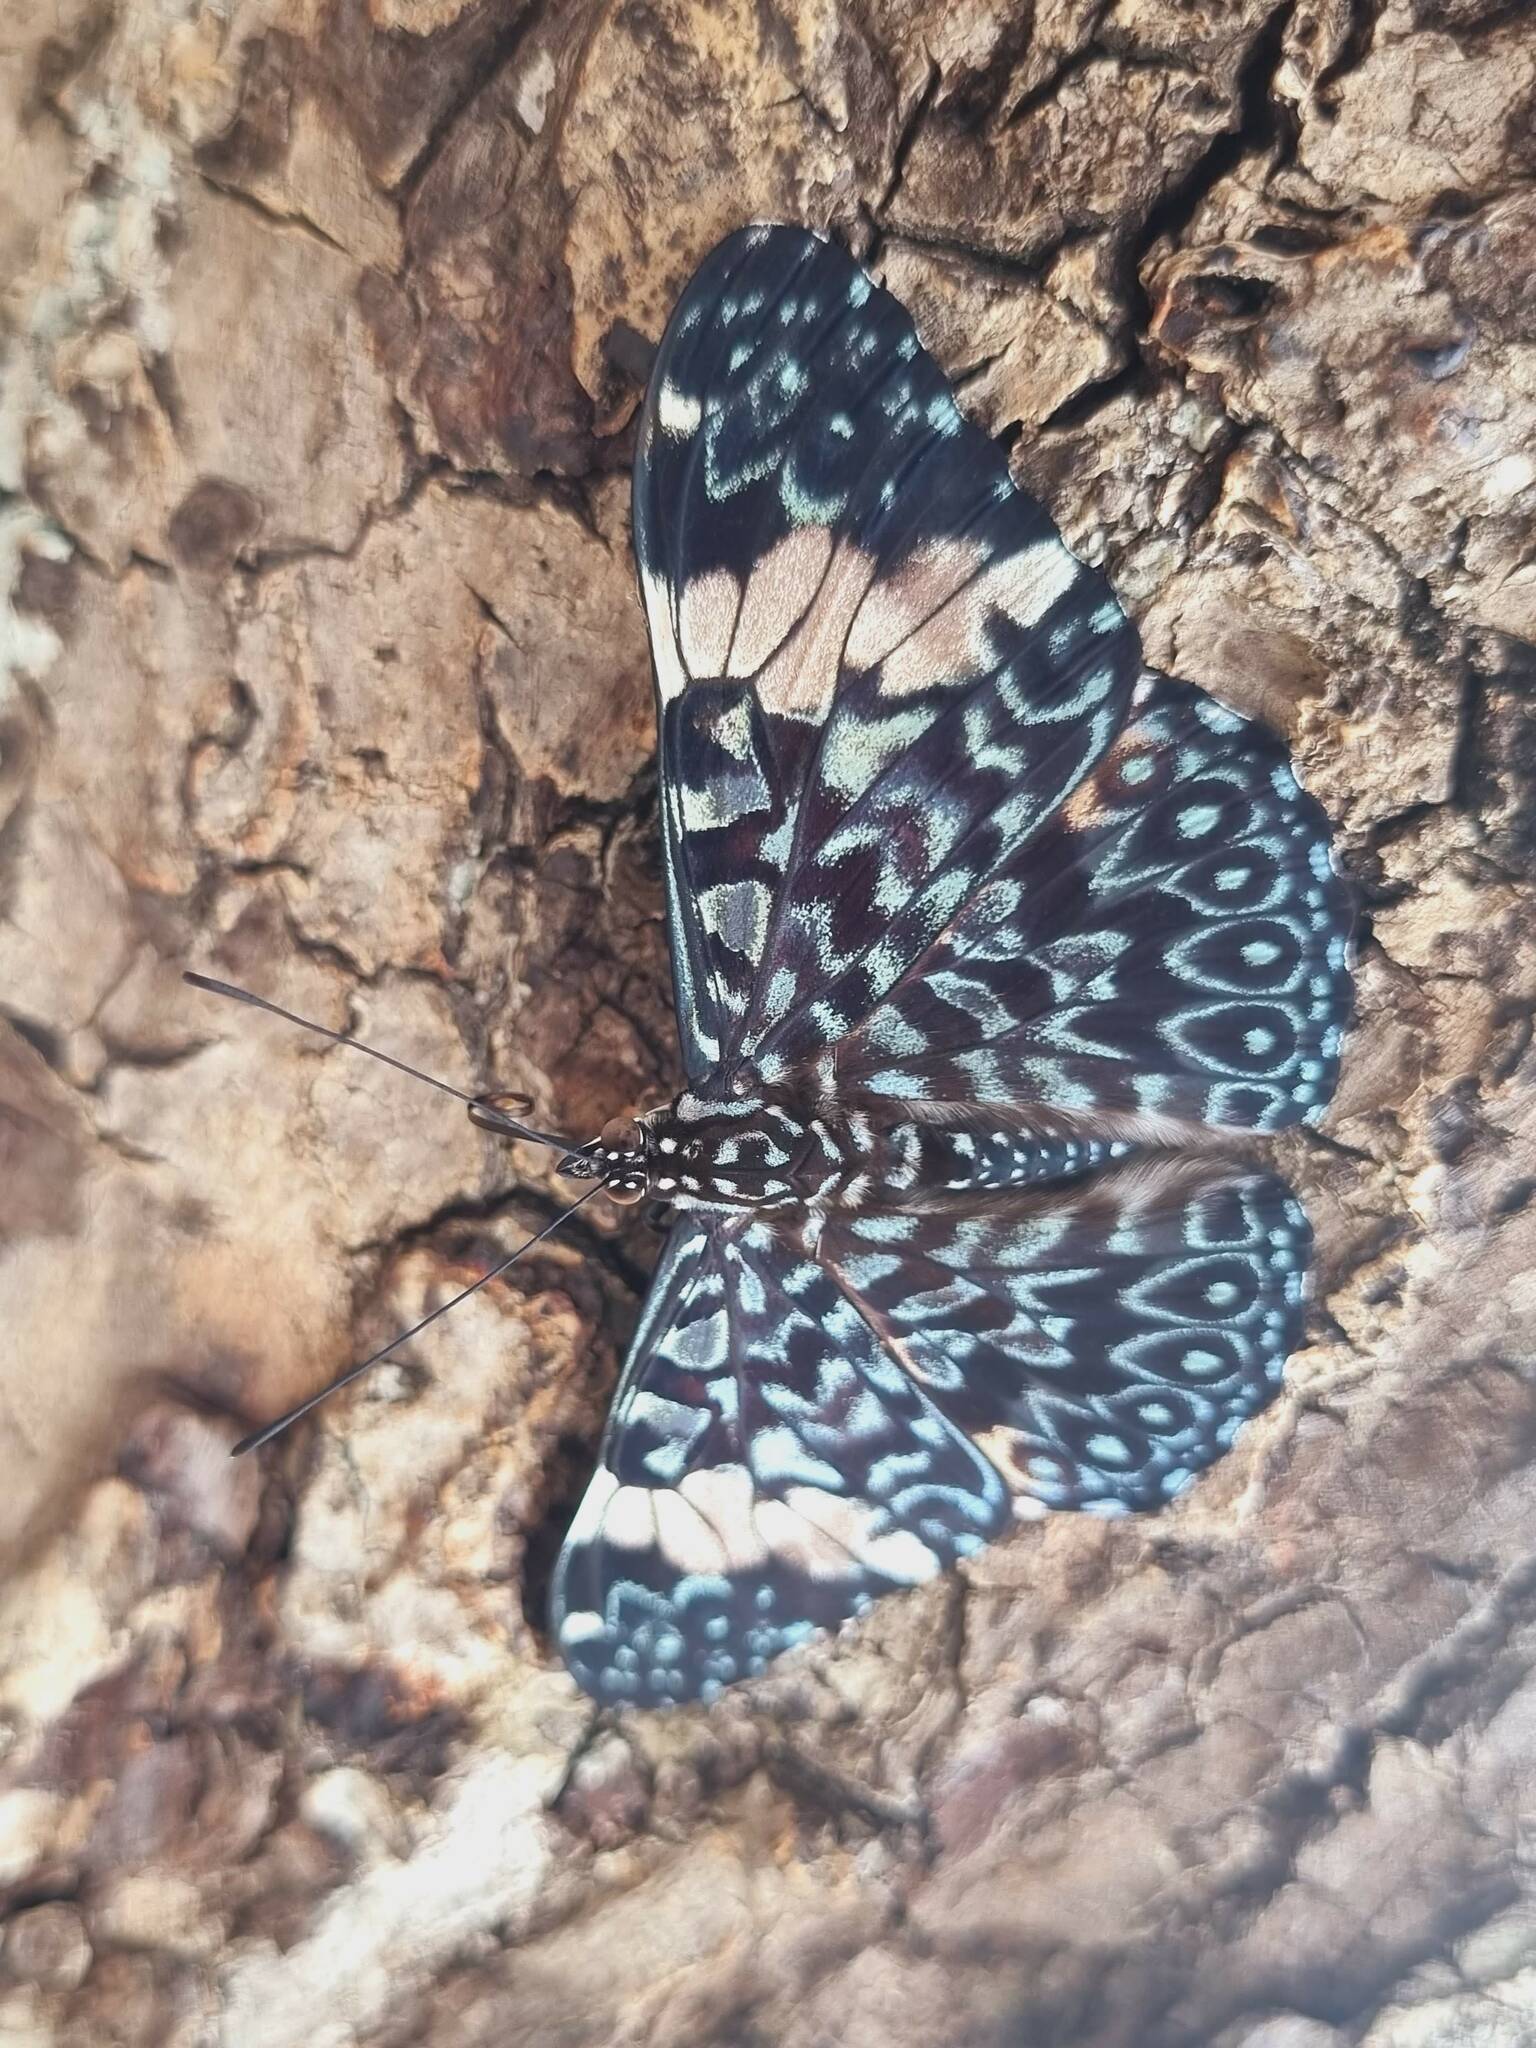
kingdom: Animalia
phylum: Arthropoda
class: Insecta
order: Lepidoptera
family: Nymphalidae
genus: Hamadryas
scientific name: Hamadryas amphinome
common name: Red cracker
